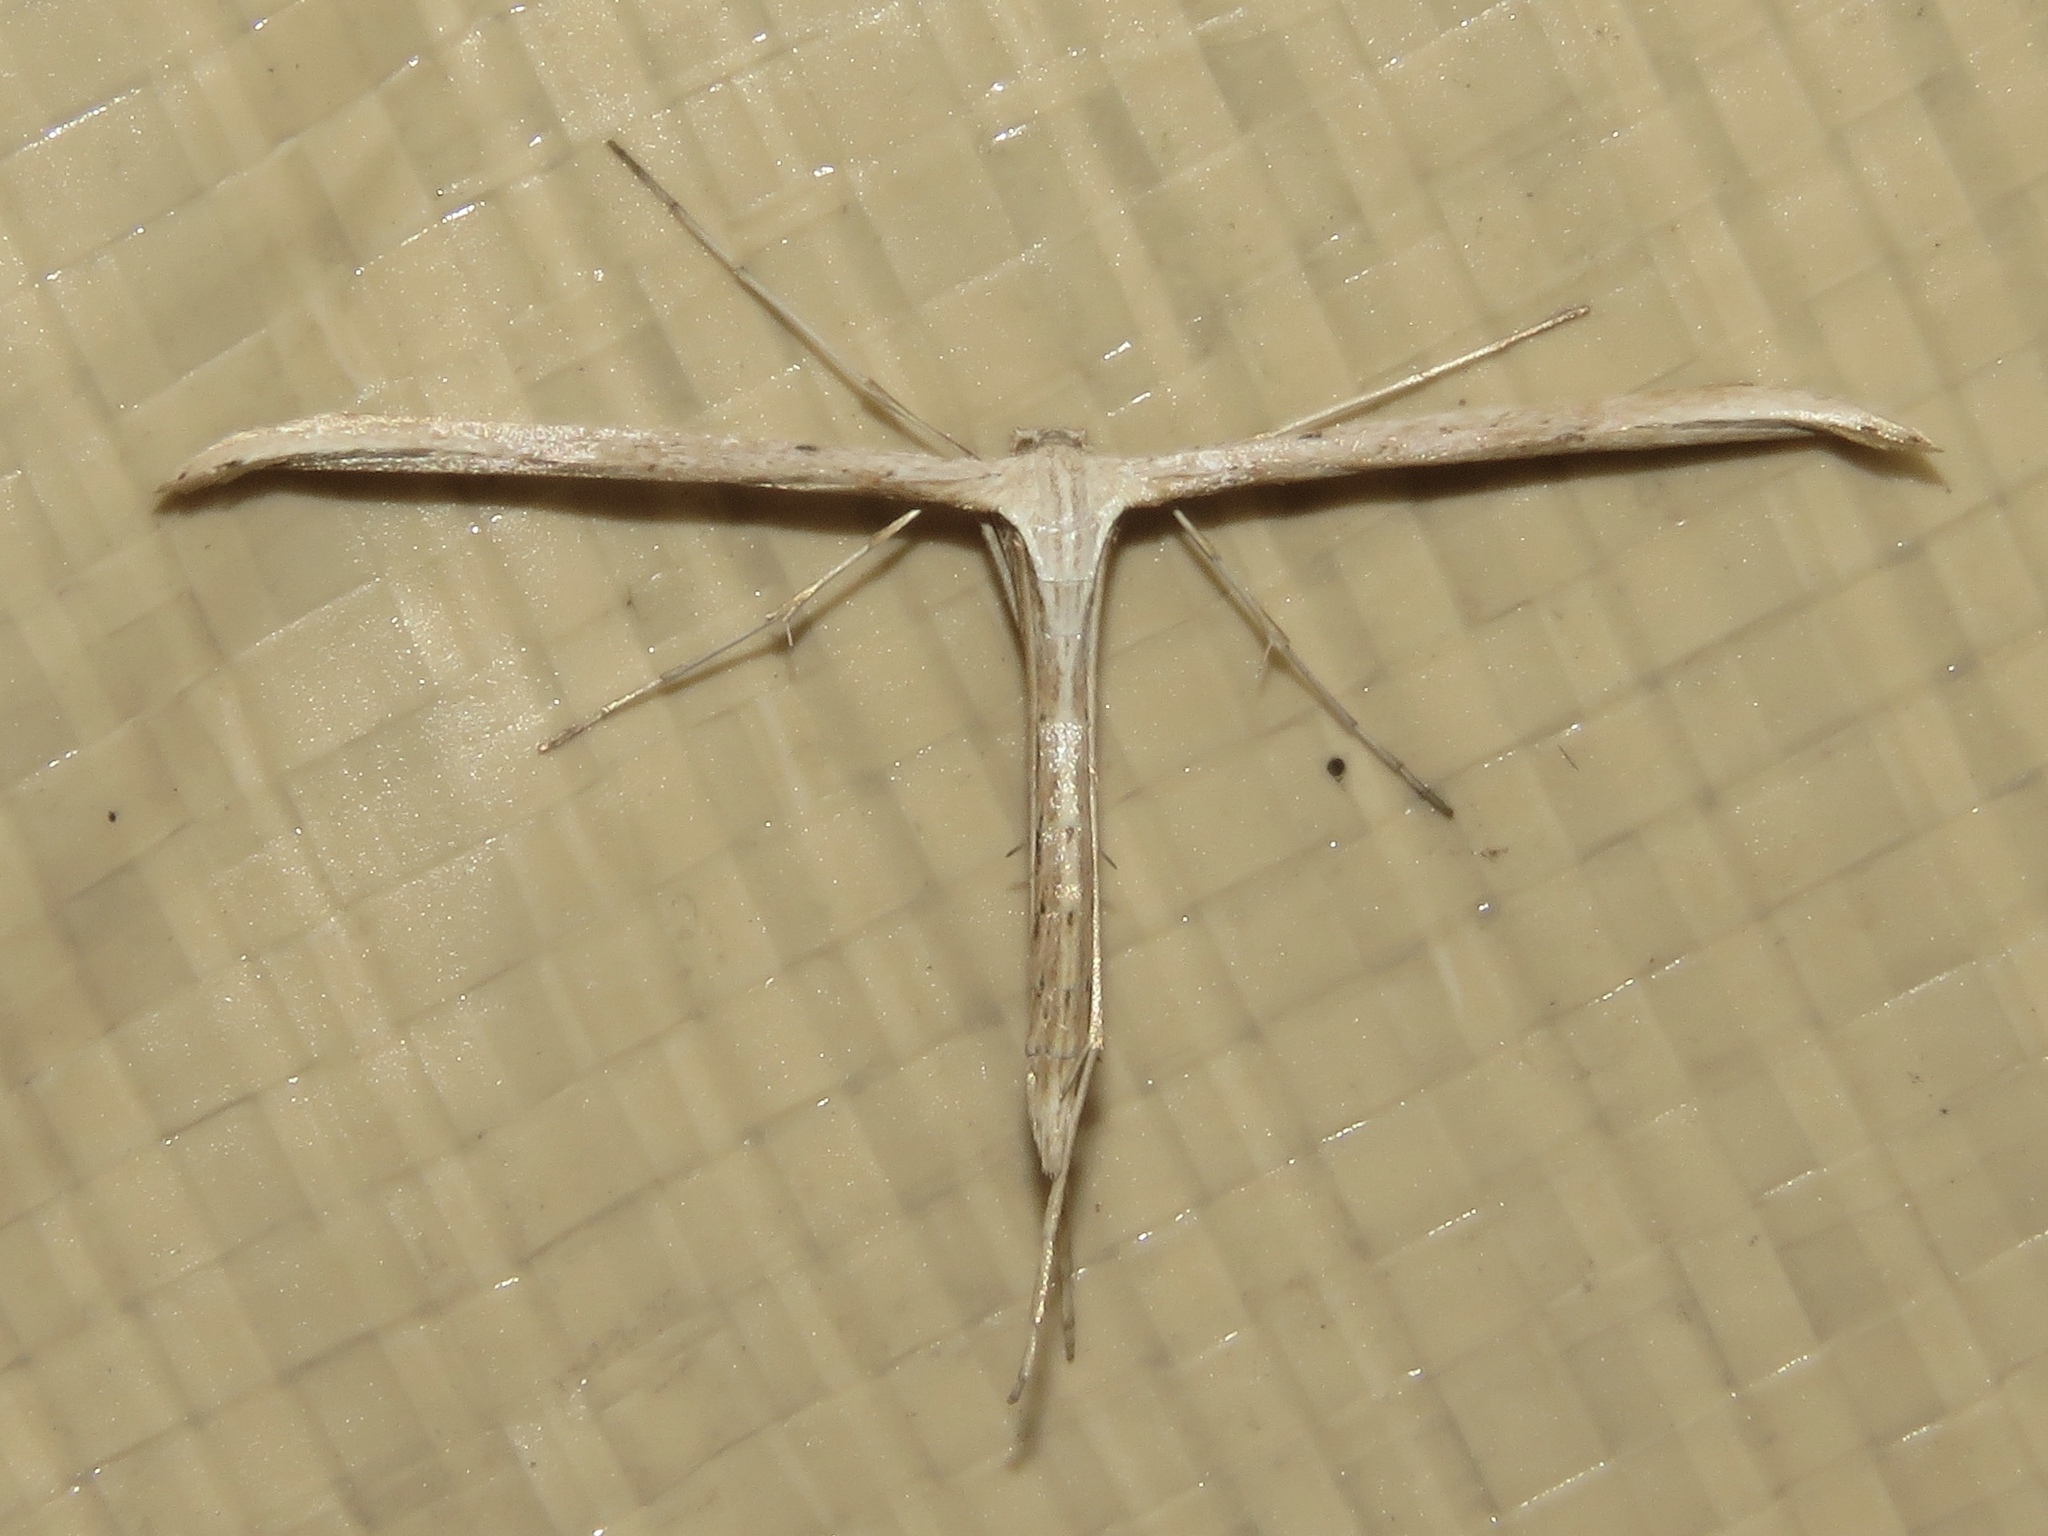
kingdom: Animalia
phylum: Arthropoda
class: Insecta
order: Lepidoptera
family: Pterophoridae
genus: Emmelina
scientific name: Emmelina monodactyla
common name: Common plume
